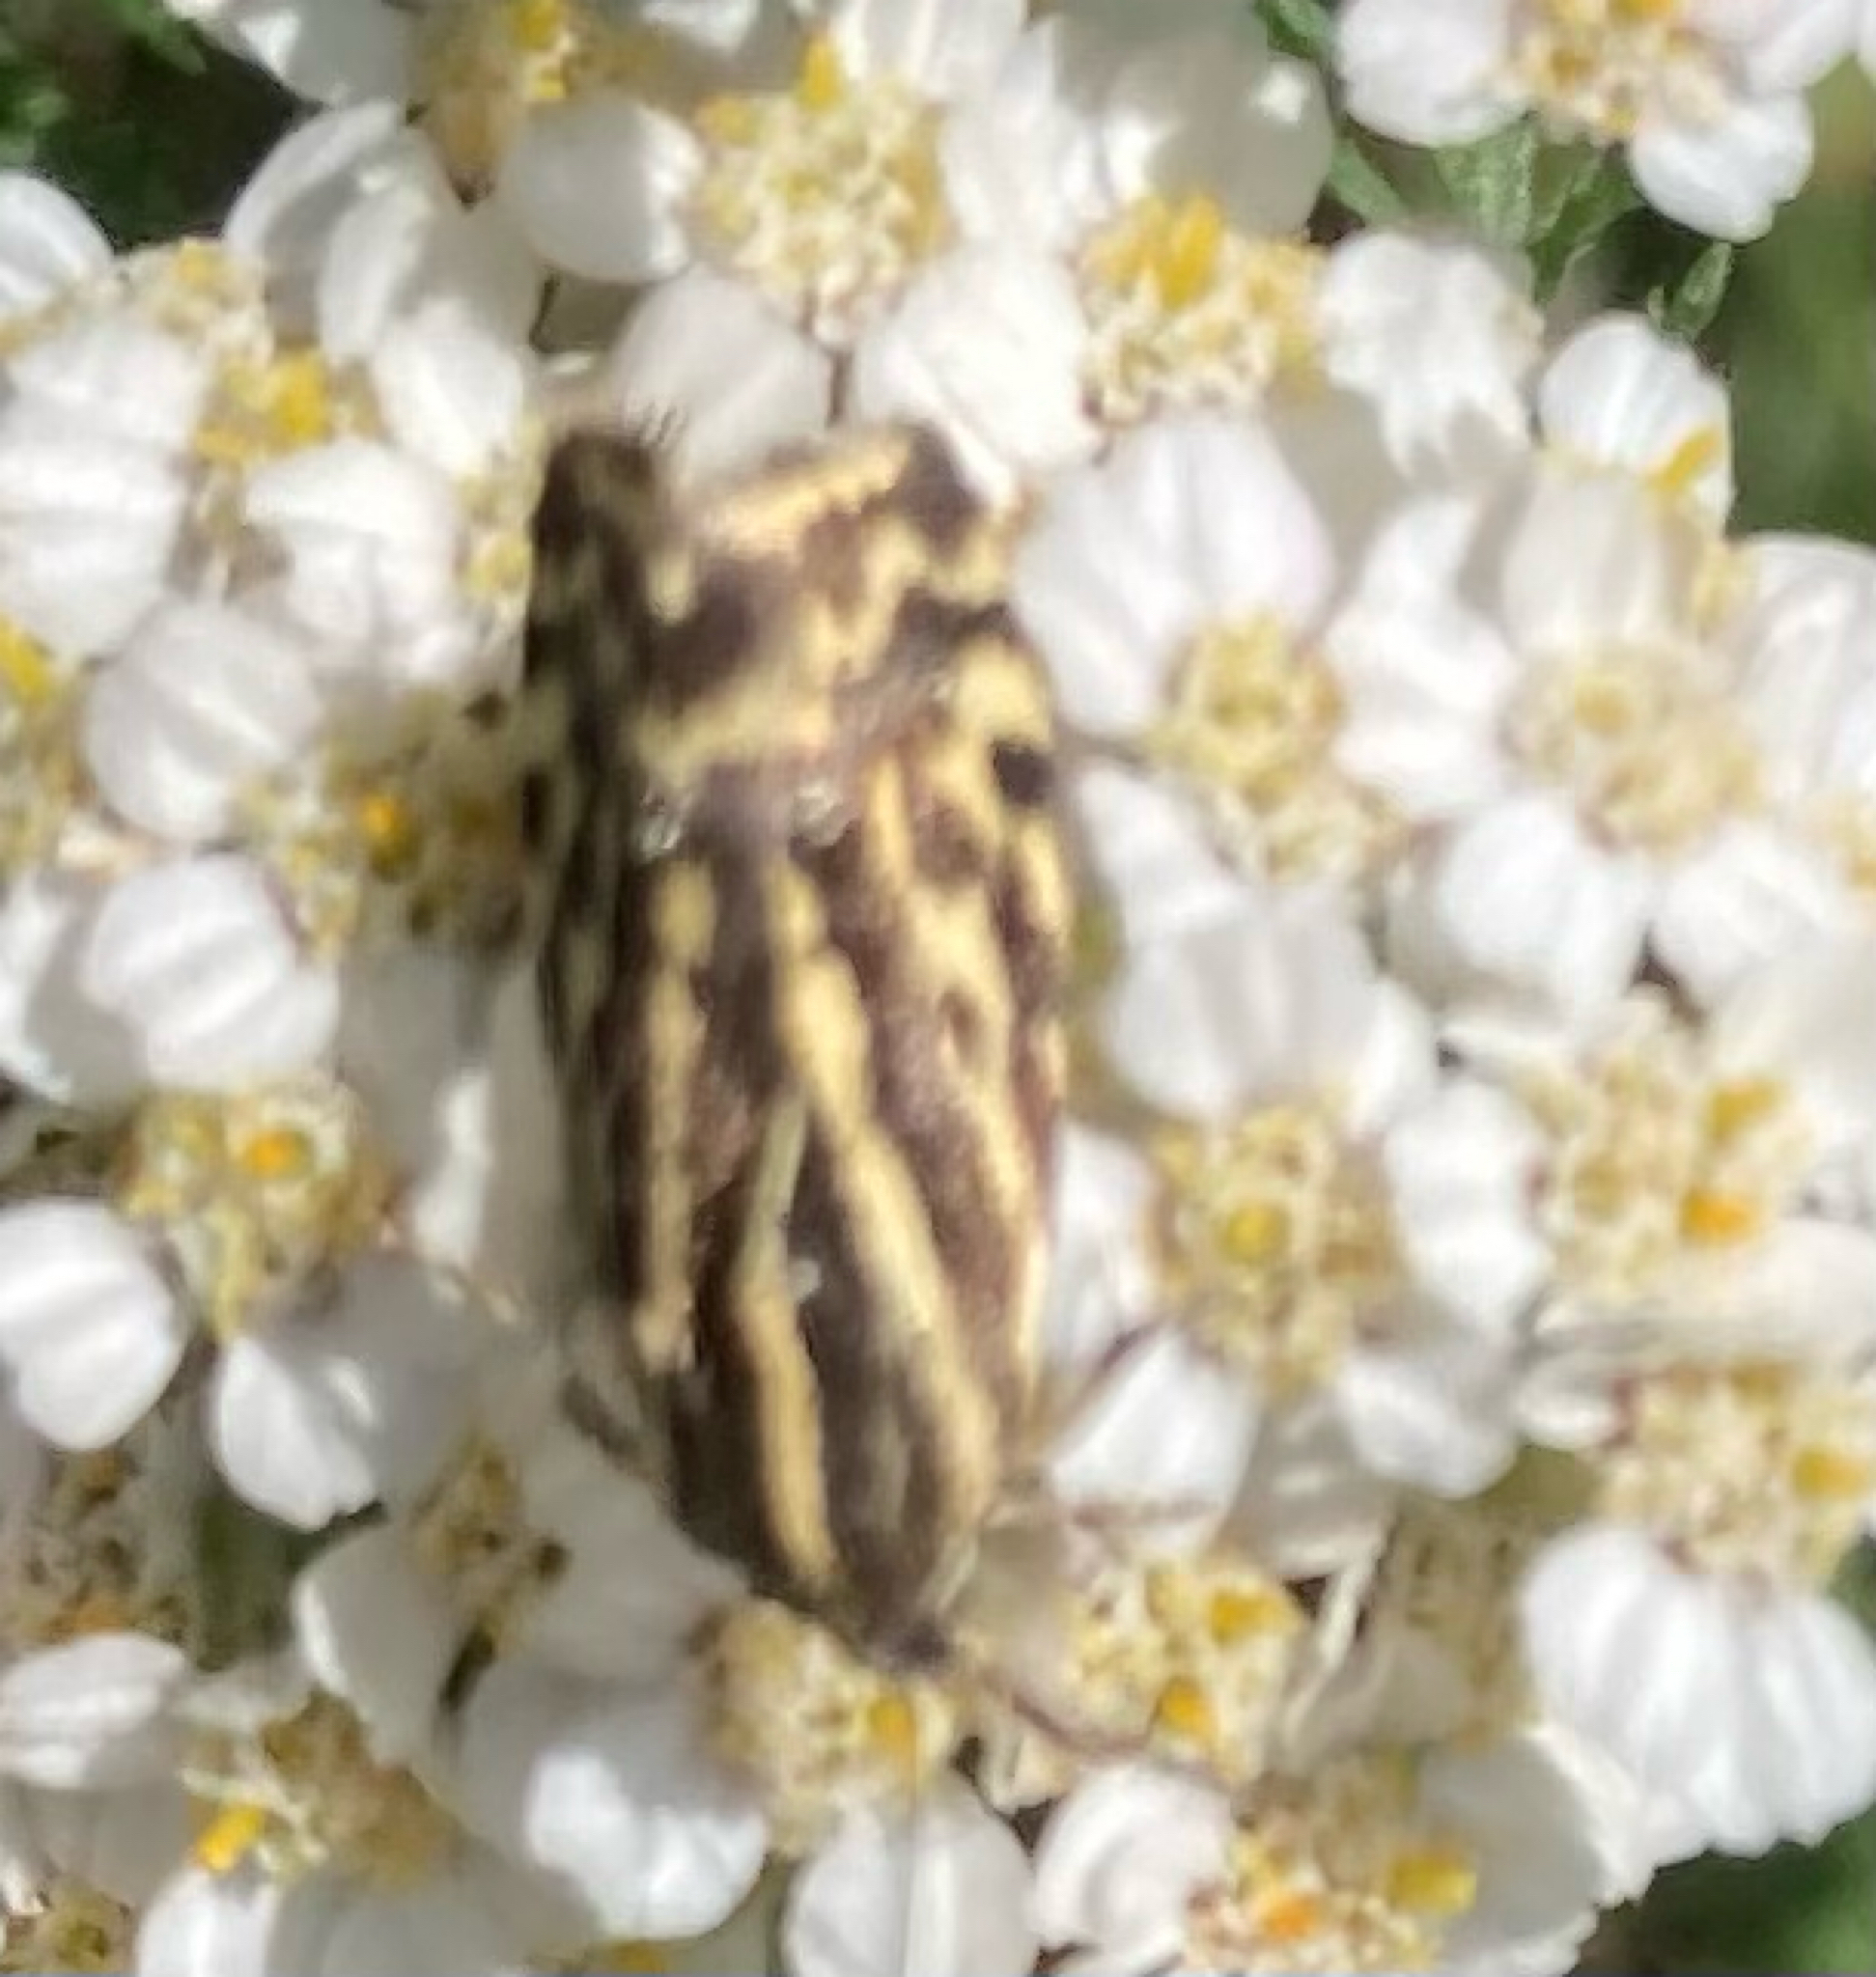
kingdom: Animalia
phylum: Arthropoda
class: Insecta
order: Lepidoptera
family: Noctuidae
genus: Acontia
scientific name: Acontia trabealis
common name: Spotted sulphur
